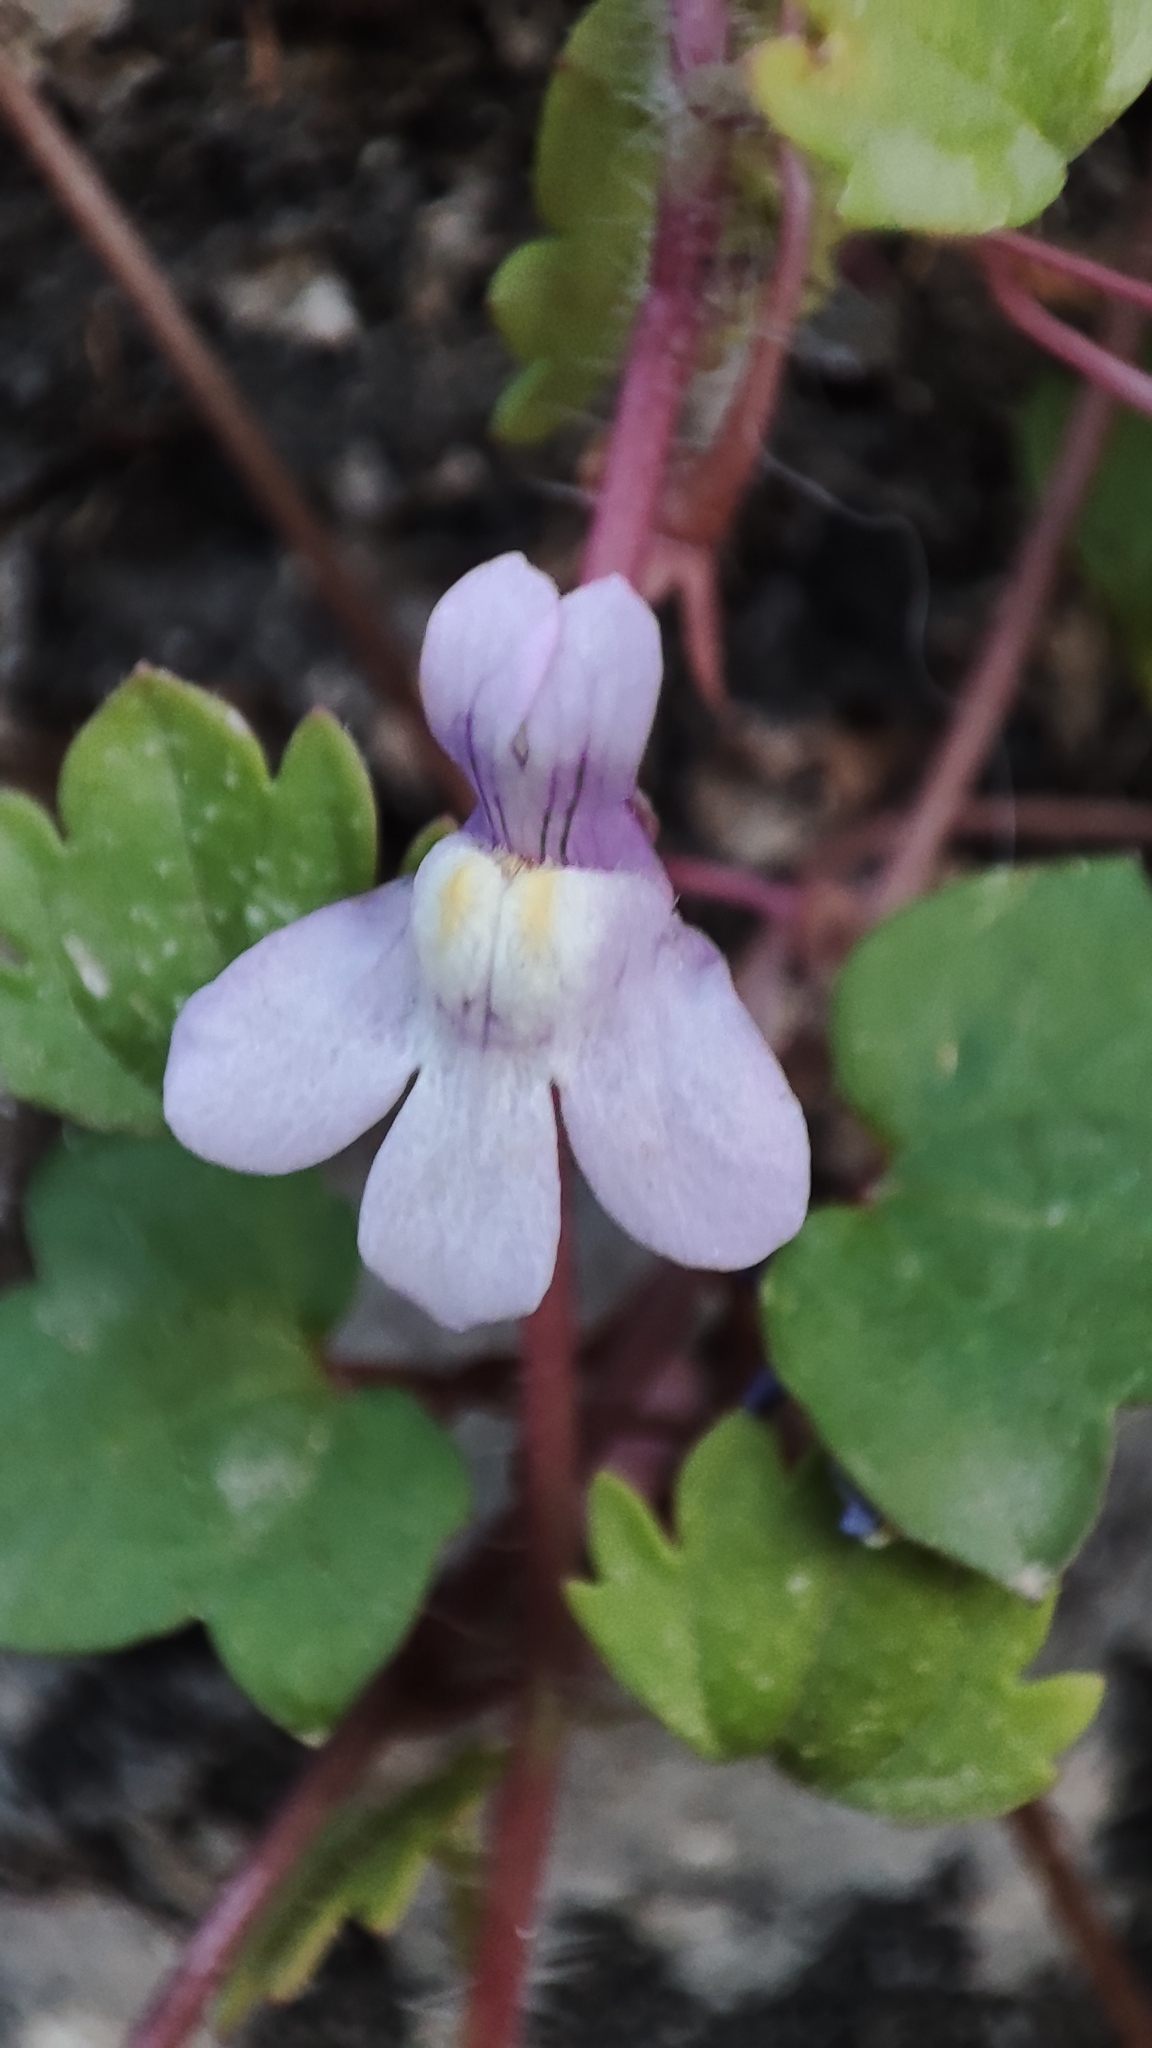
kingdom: Plantae
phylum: Tracheophyta
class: Magnoliopsida
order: Lamiales
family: Plantaginaceae
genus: Cymbalaria
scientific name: Cymbalaria muralis
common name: Ivy-leaved toadflax
